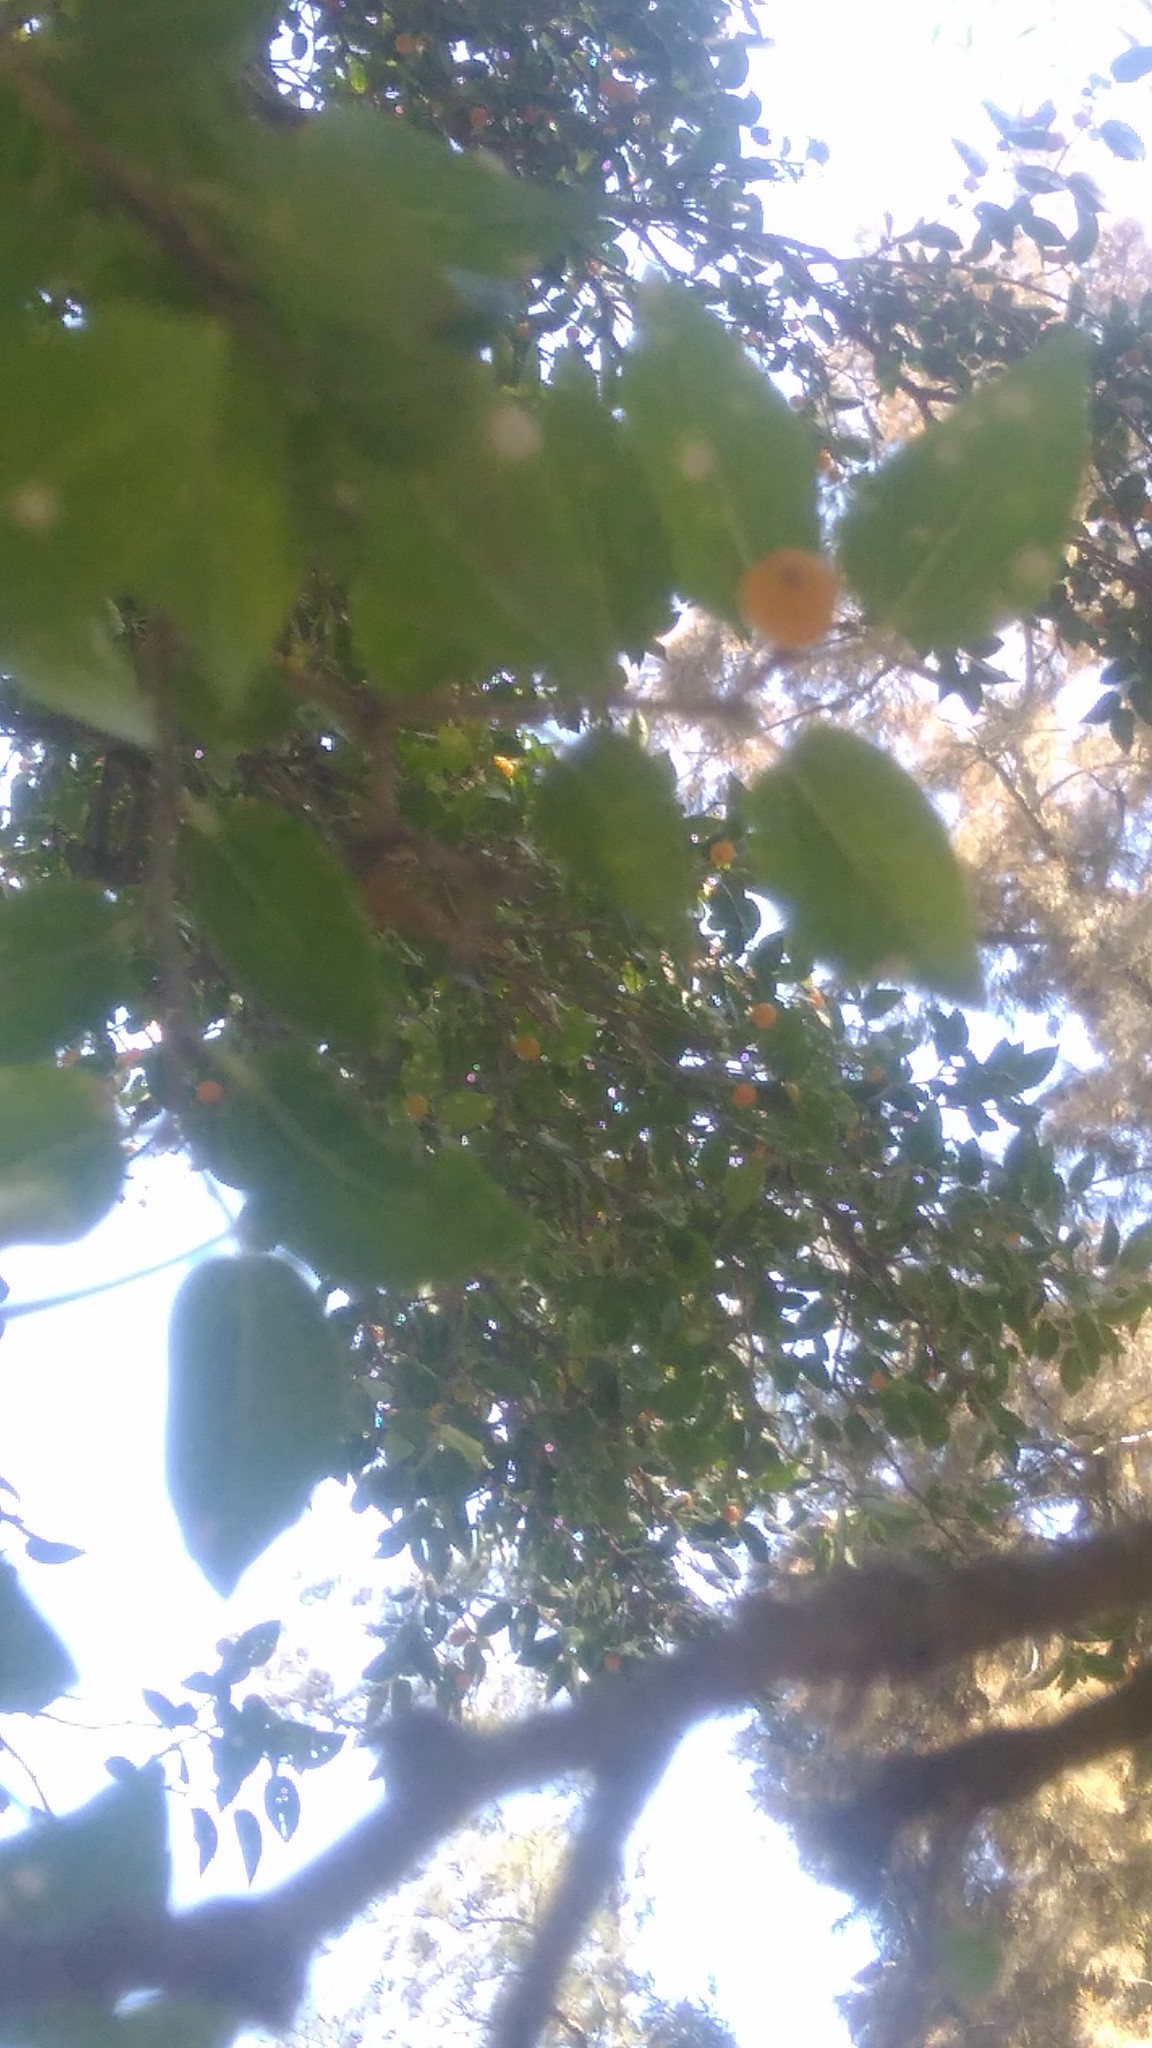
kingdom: Plantae
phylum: Tracheophyta
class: Magnoliopsida
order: Rosales
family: Cannabaceae
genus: Celtis
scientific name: Celtis tala
